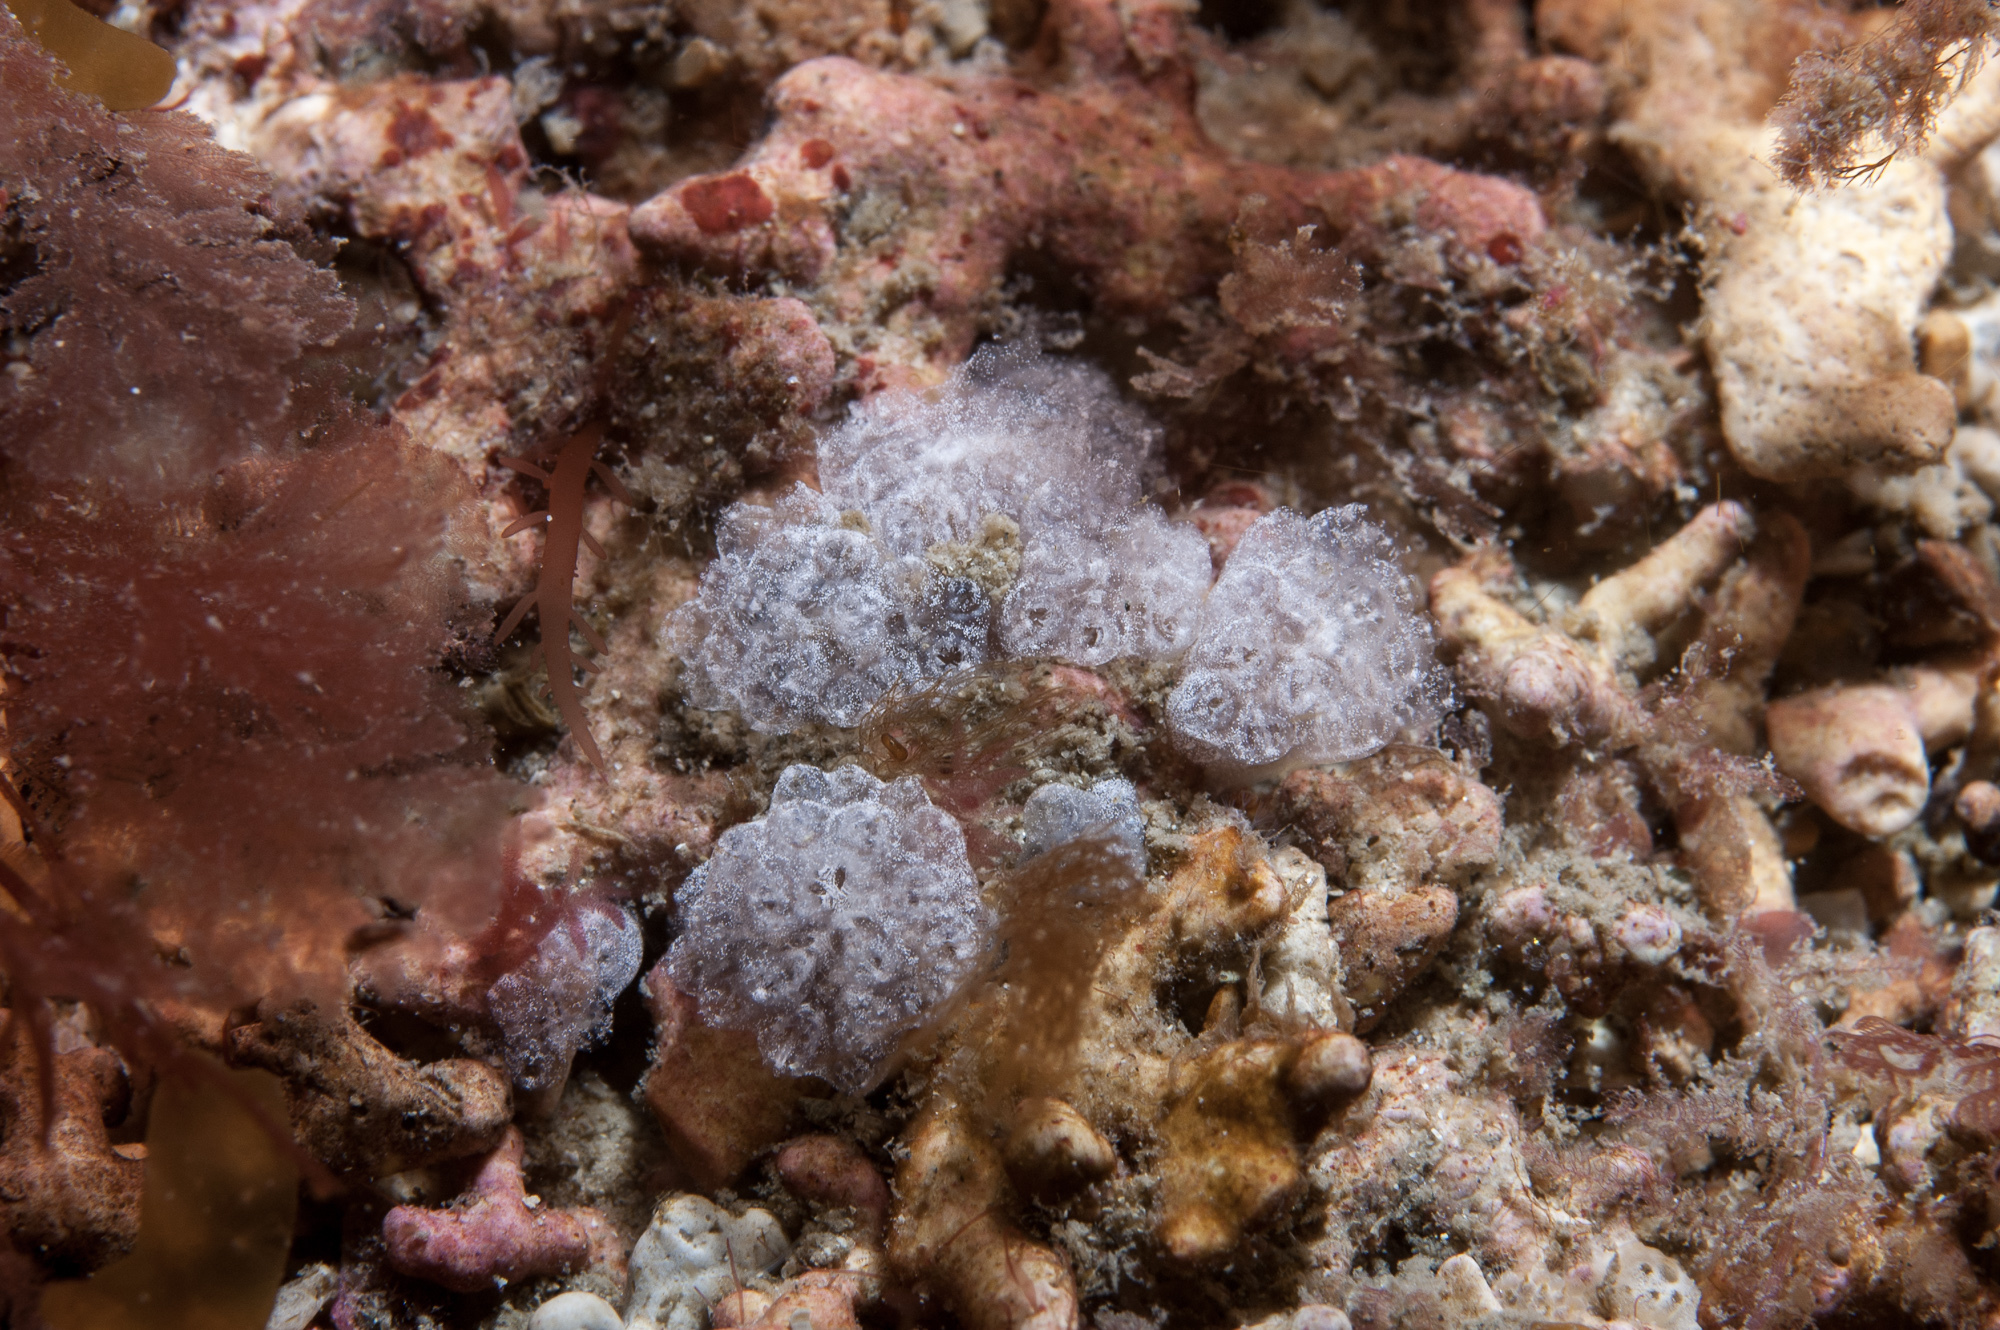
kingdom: Animalia
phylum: Chordata
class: Ascidiacea
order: Aplousobranchia
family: Holozoidae
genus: Distaplia
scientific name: Distaplia rosea
